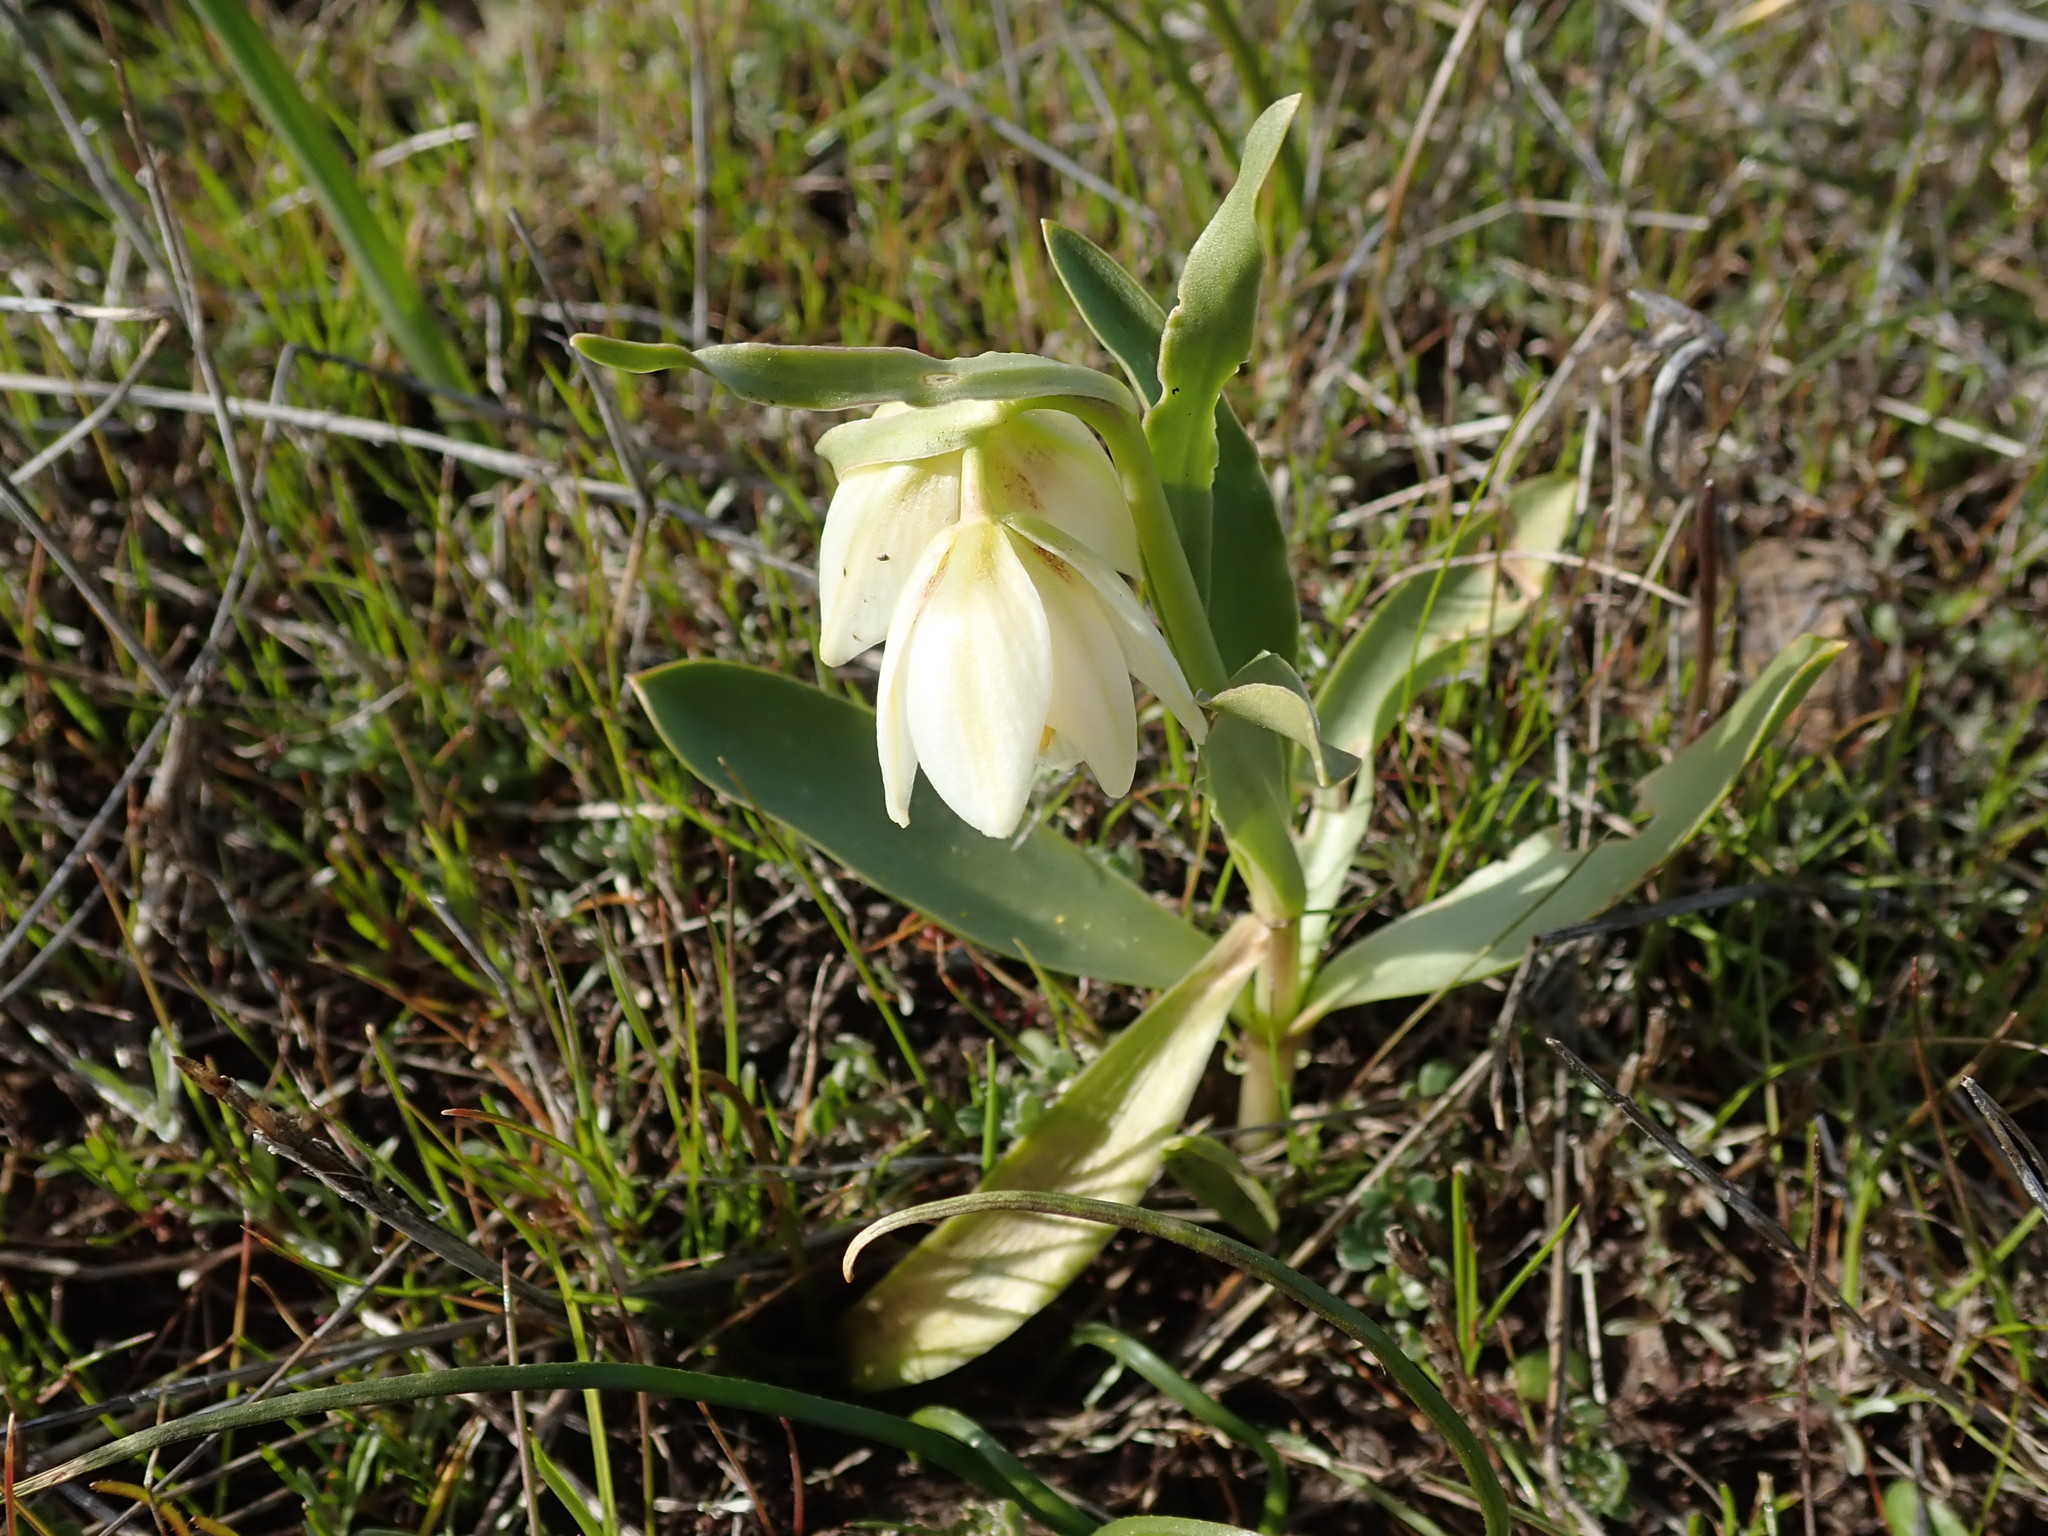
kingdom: Plantae
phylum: Tracheophyta
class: Liliopsida
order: Liliales
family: Liliaceae
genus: Fritillaria
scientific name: Fritillaria liliacea
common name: Fragrant fritillary
